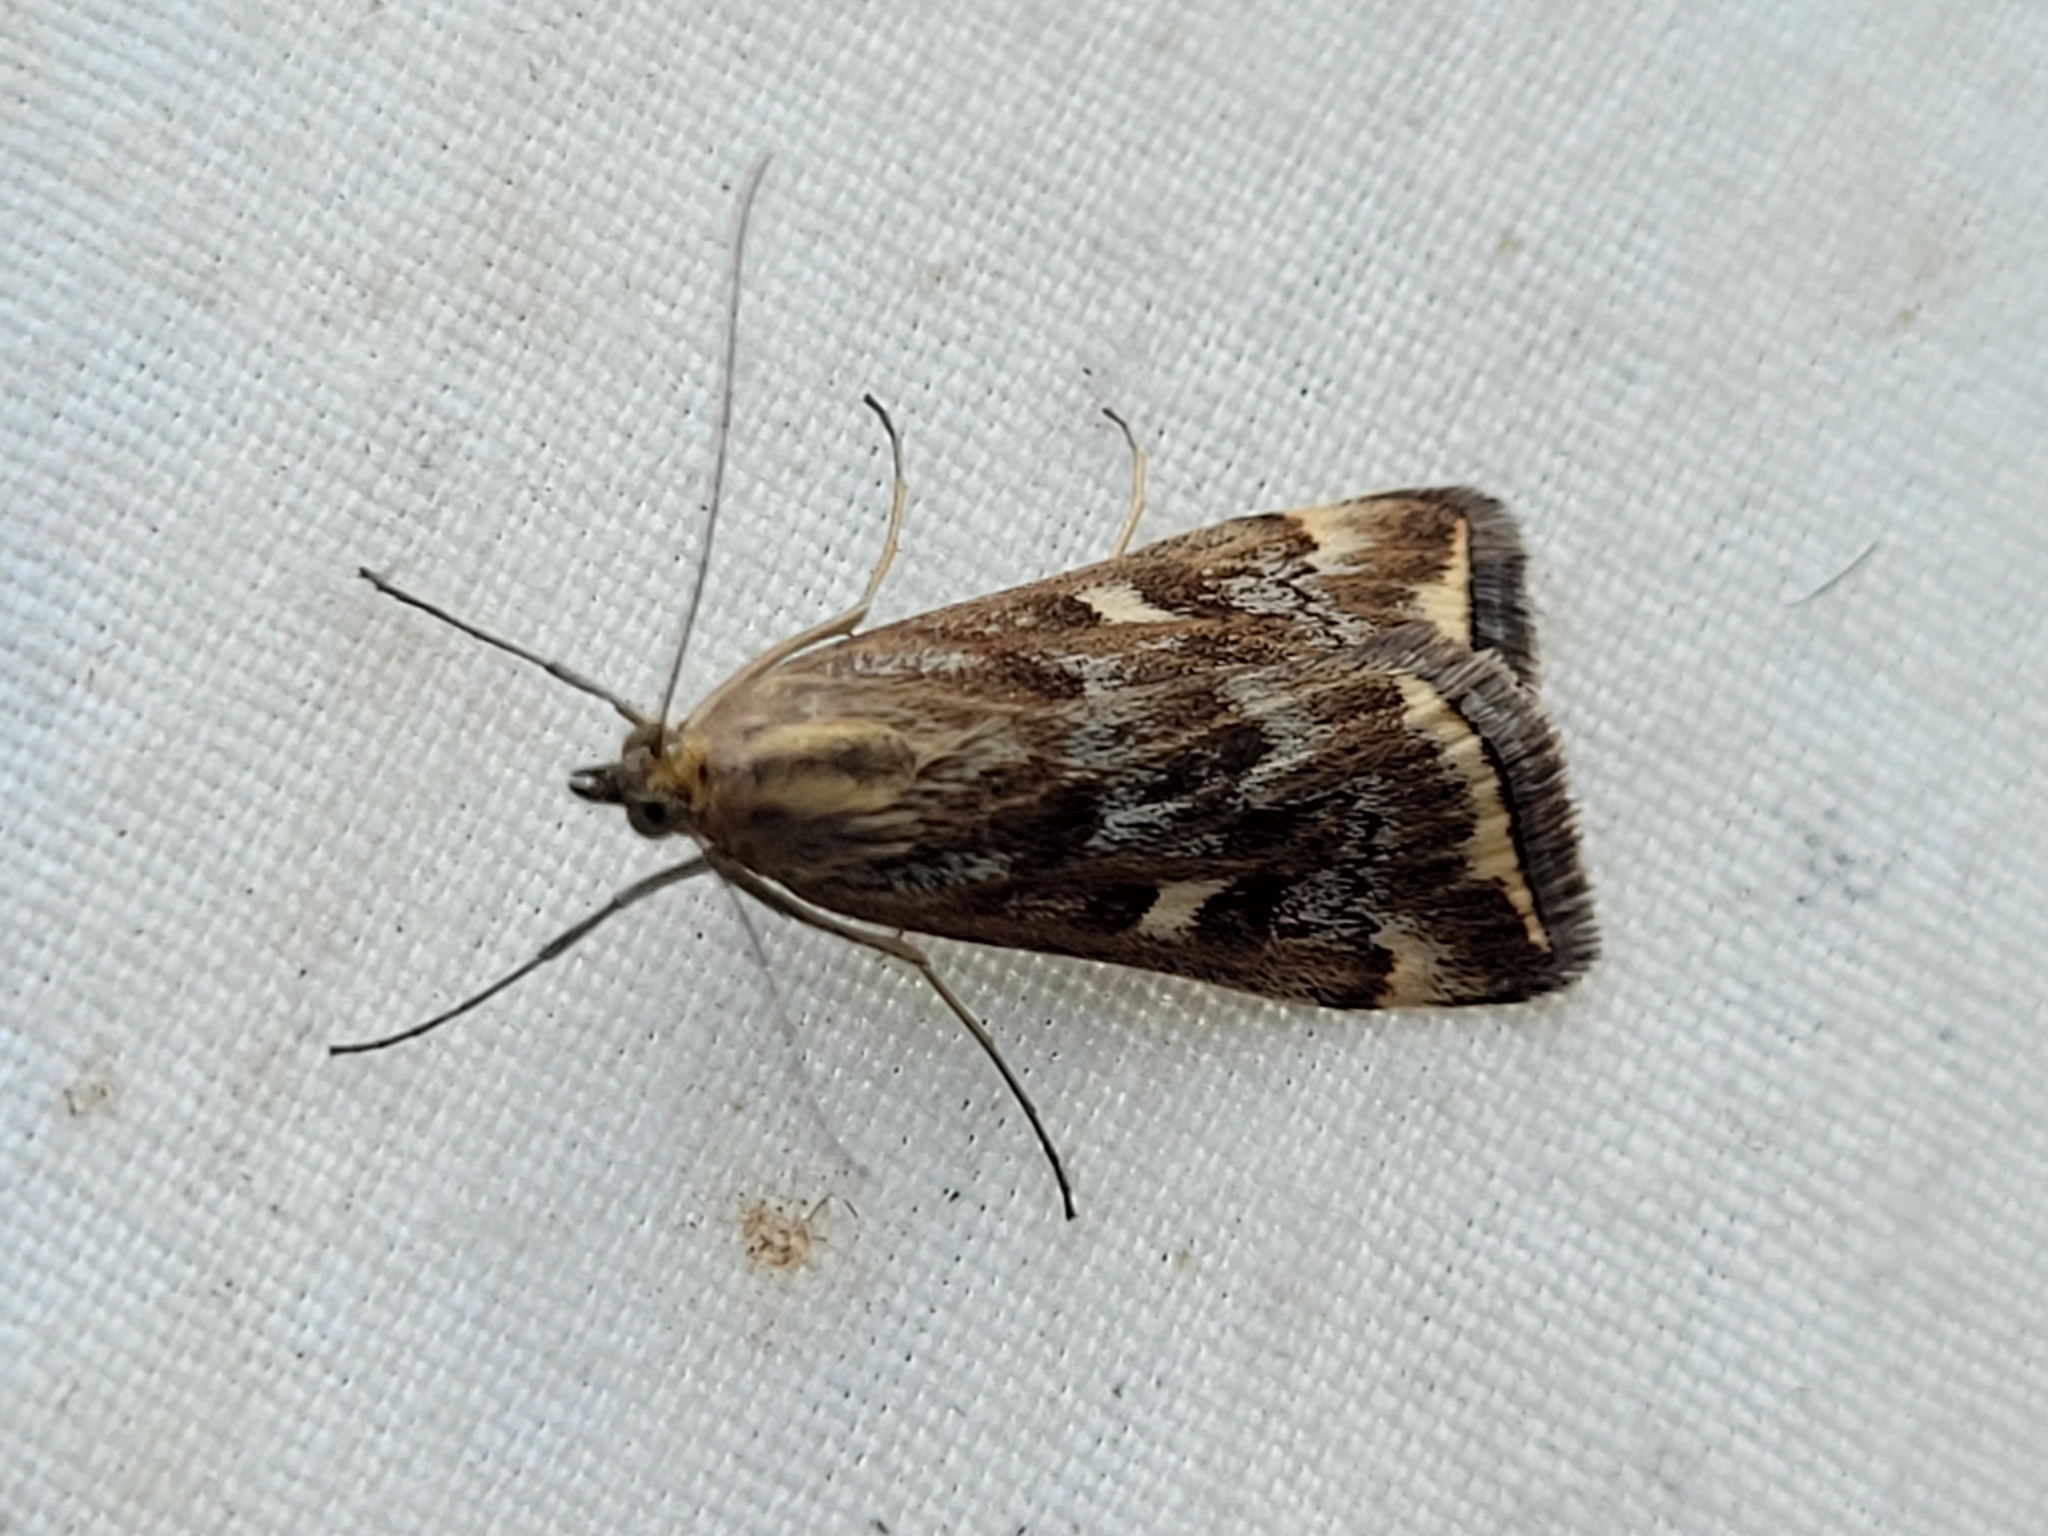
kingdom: Animalia
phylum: Arthropoda
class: Insecta
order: Lepidoptera
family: Crambidae
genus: Loxostege
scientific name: Loxostege
